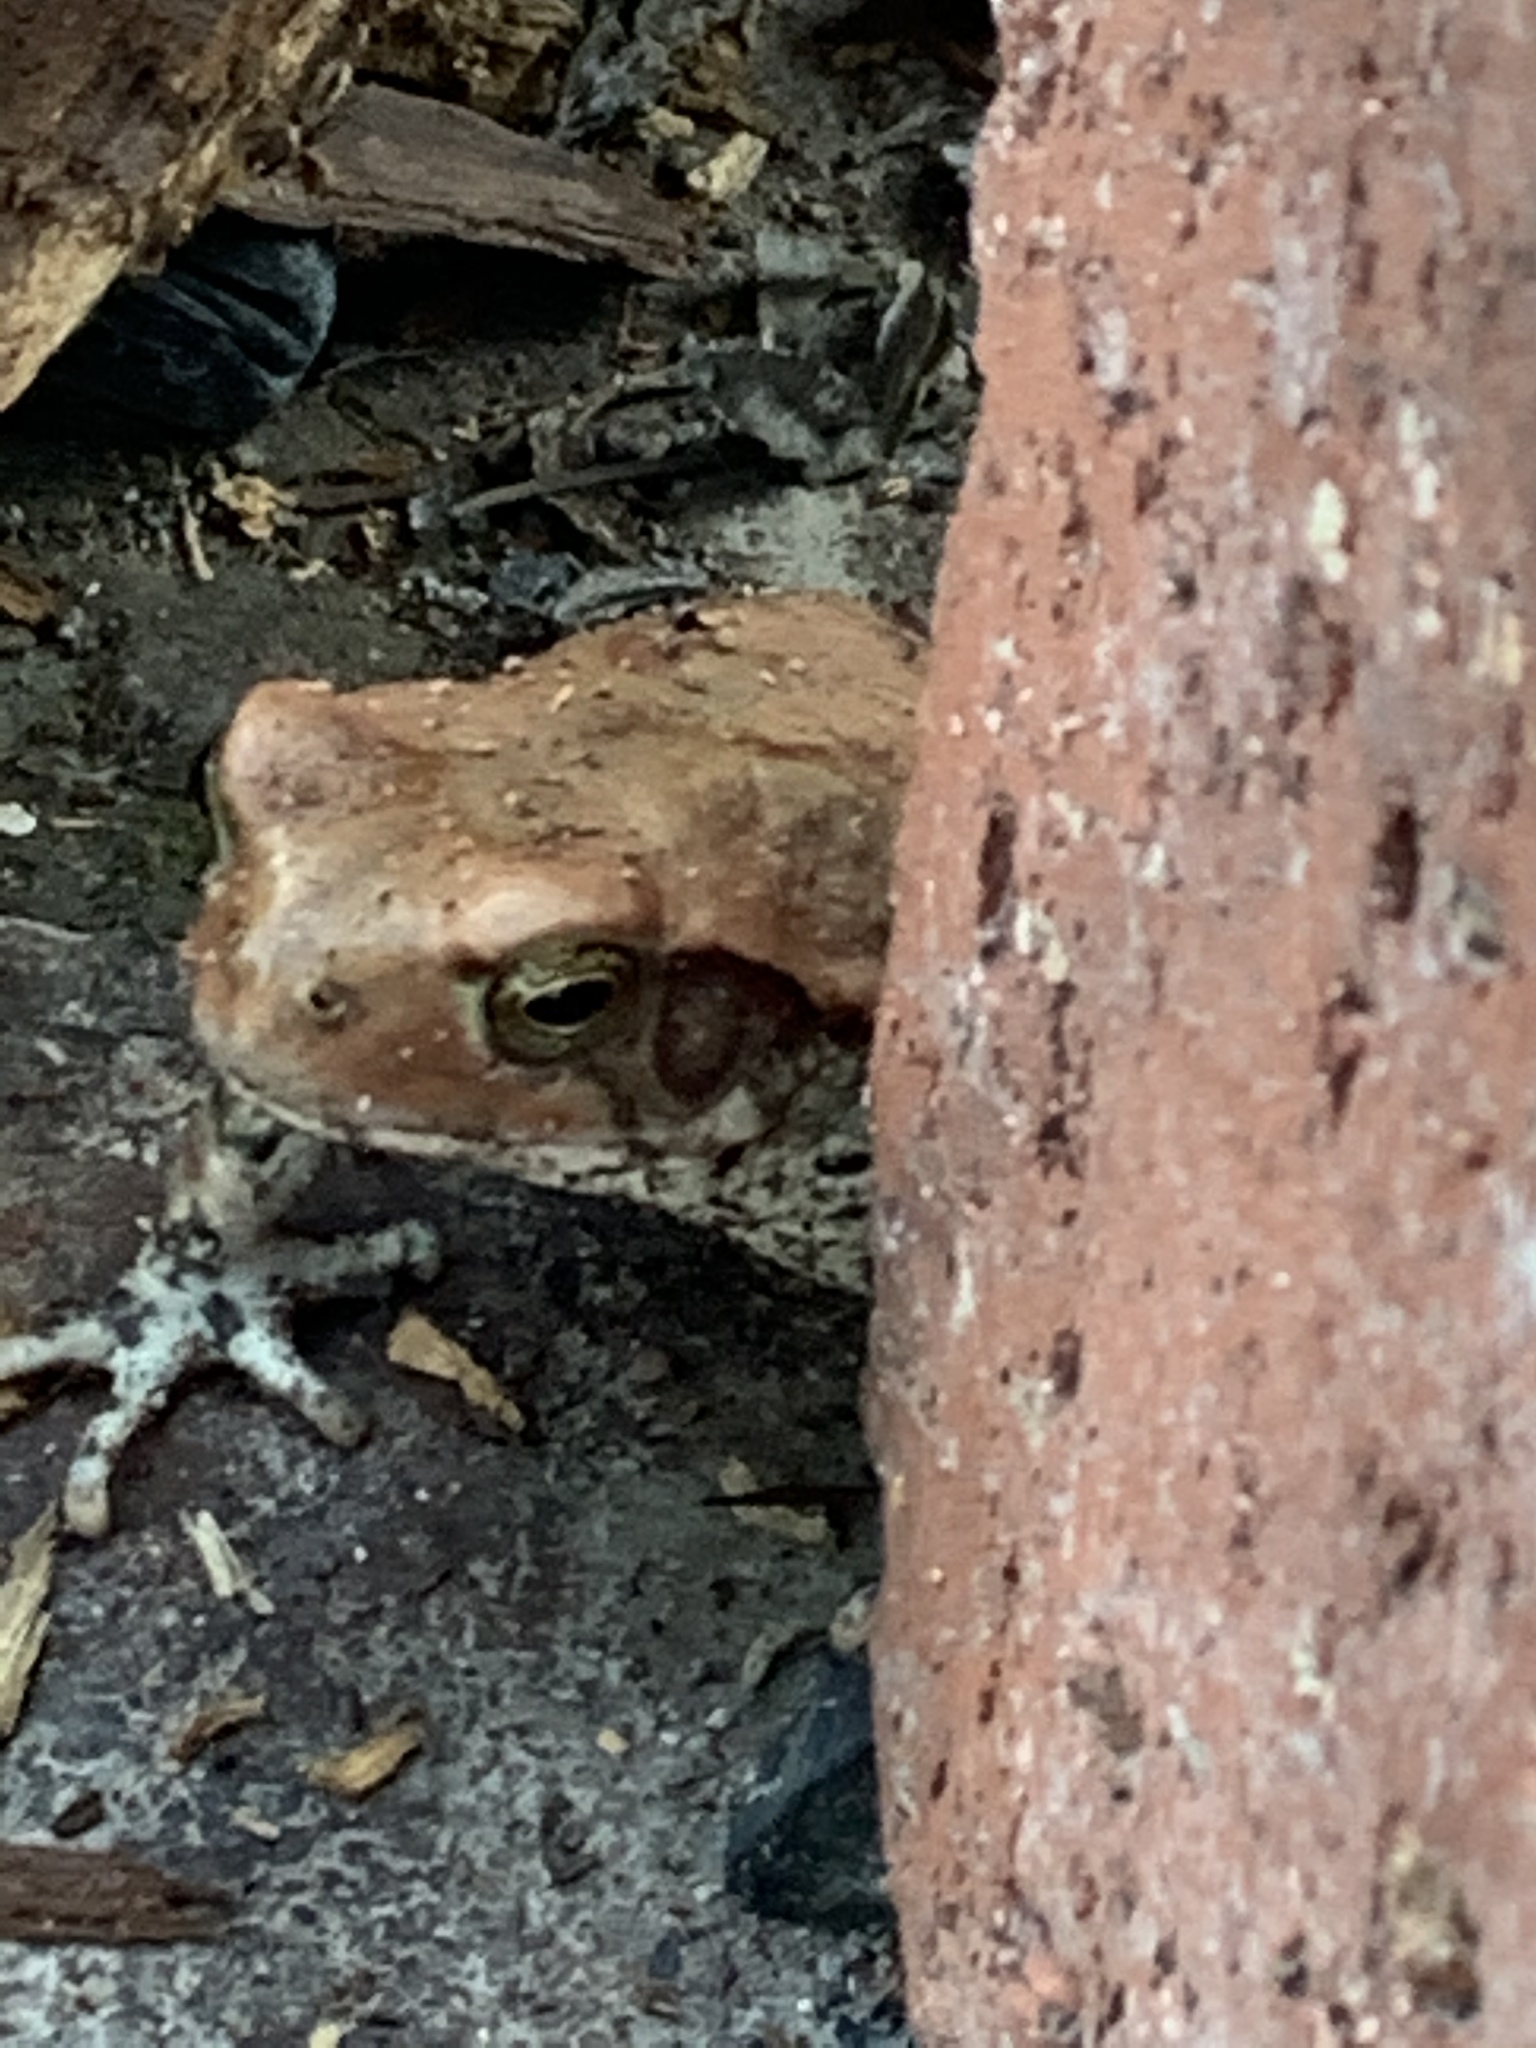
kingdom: Animalia
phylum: Chordata
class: Amphibia
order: Anura
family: Bufonidae
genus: Schismaderma
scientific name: Schismaderma carens
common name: African split-skin toad
